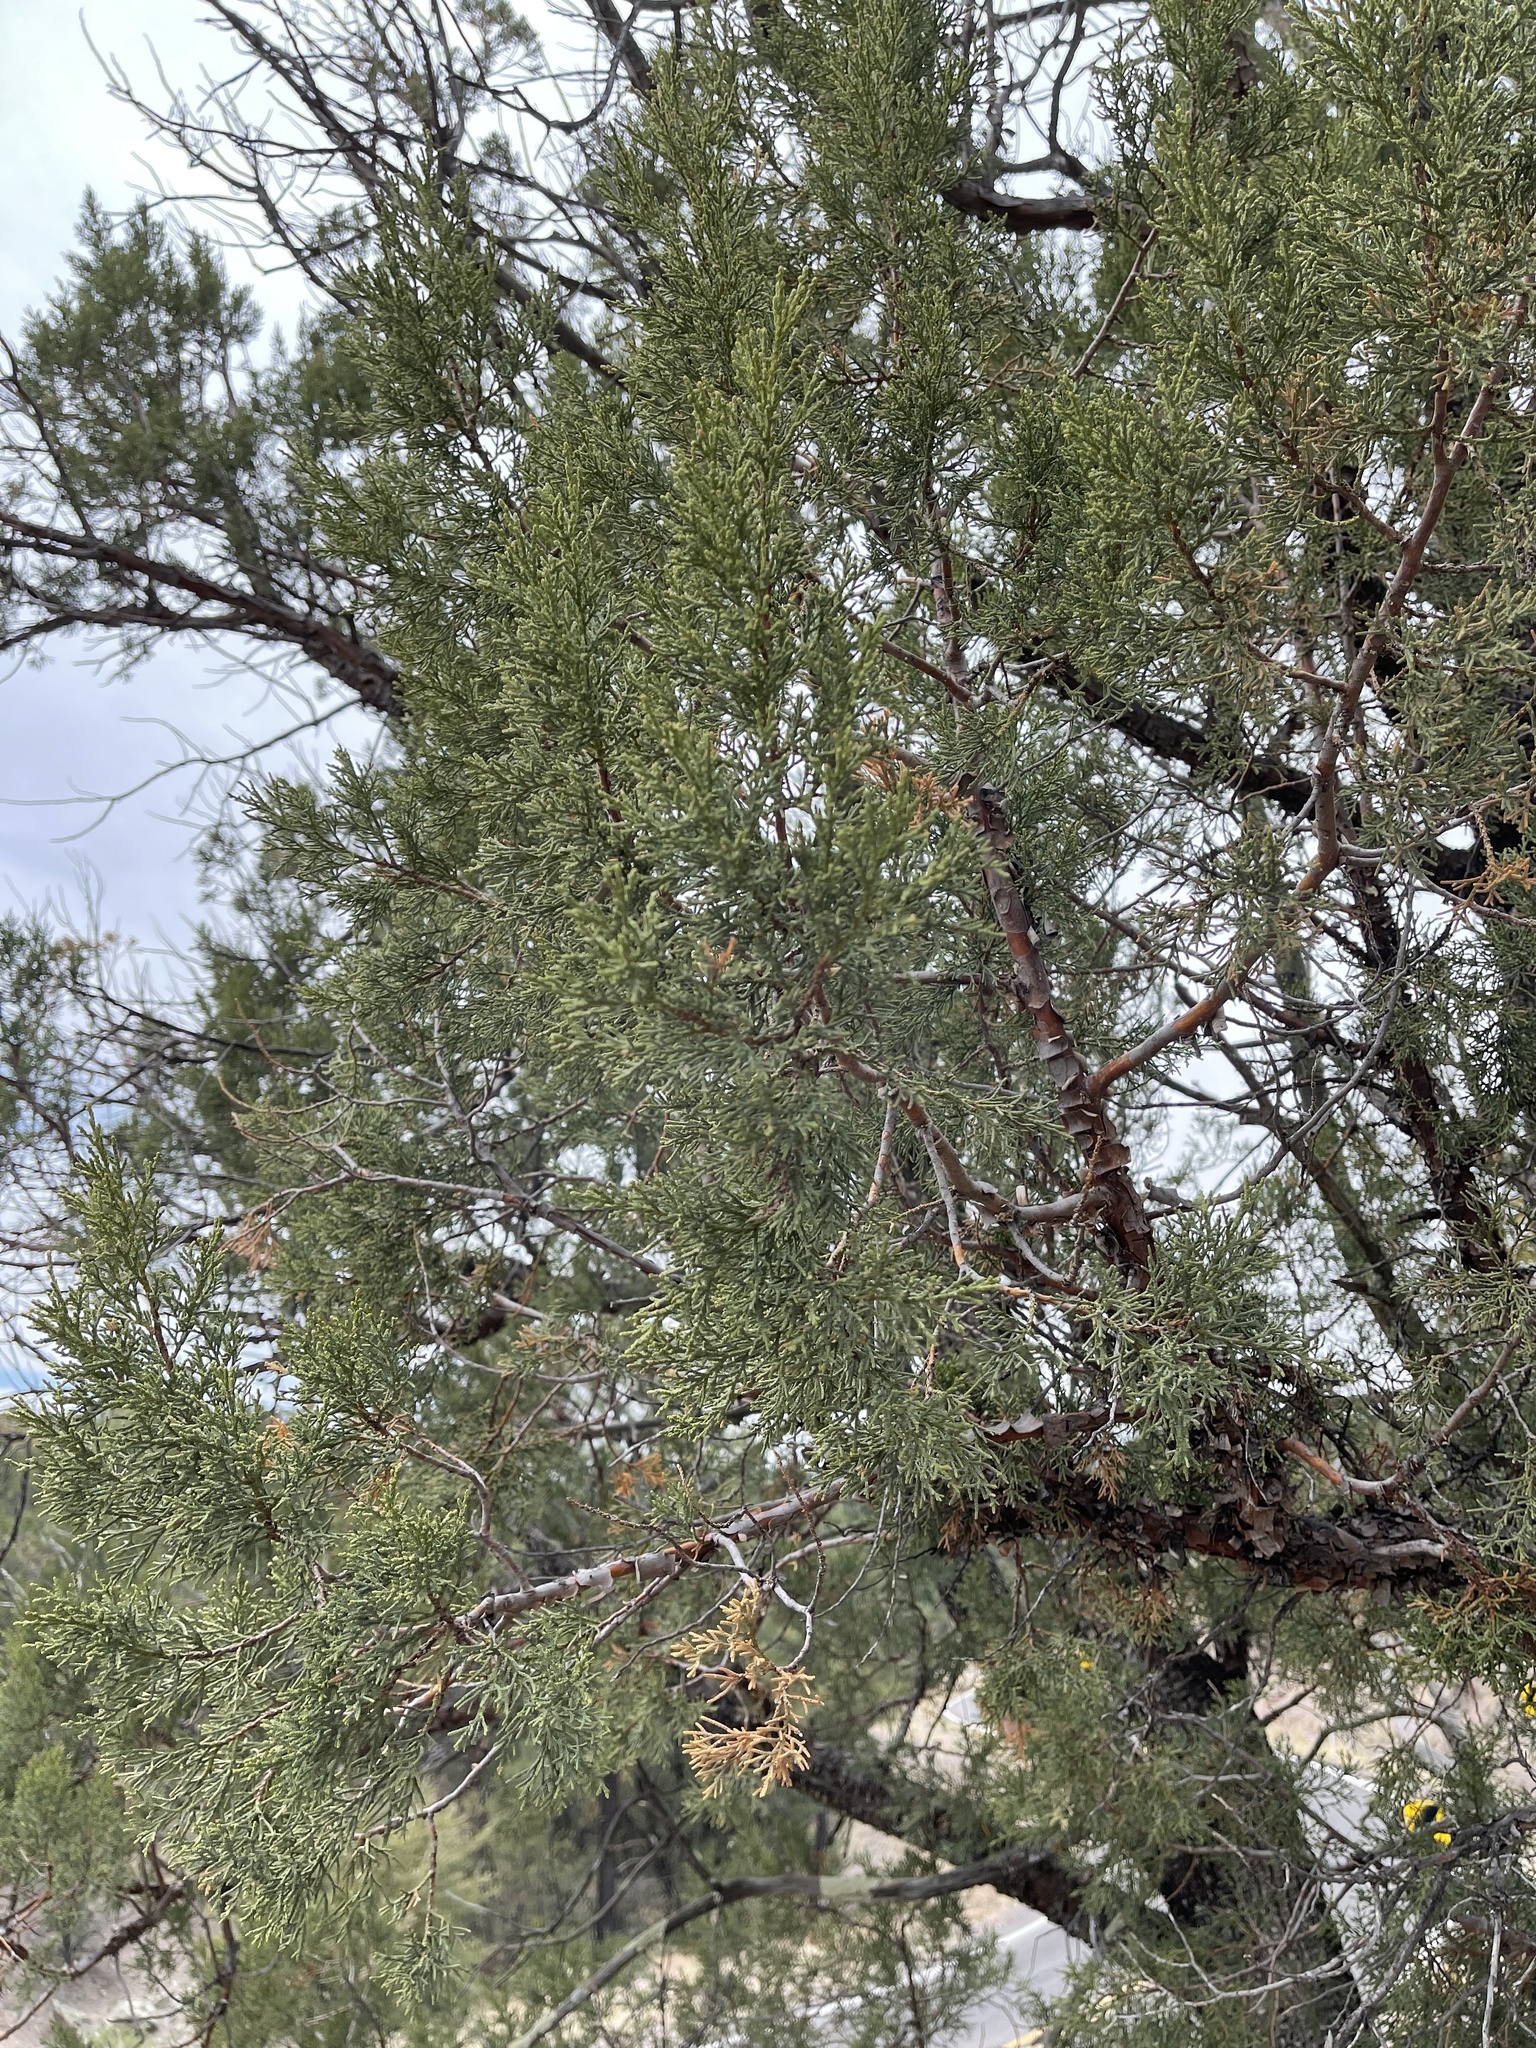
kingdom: Plantae
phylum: Tracheophyta
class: Pinopsida
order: Pinales
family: Cupressaceae
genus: Juniperus
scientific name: Juniperus deppeana
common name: Alligator juniper
